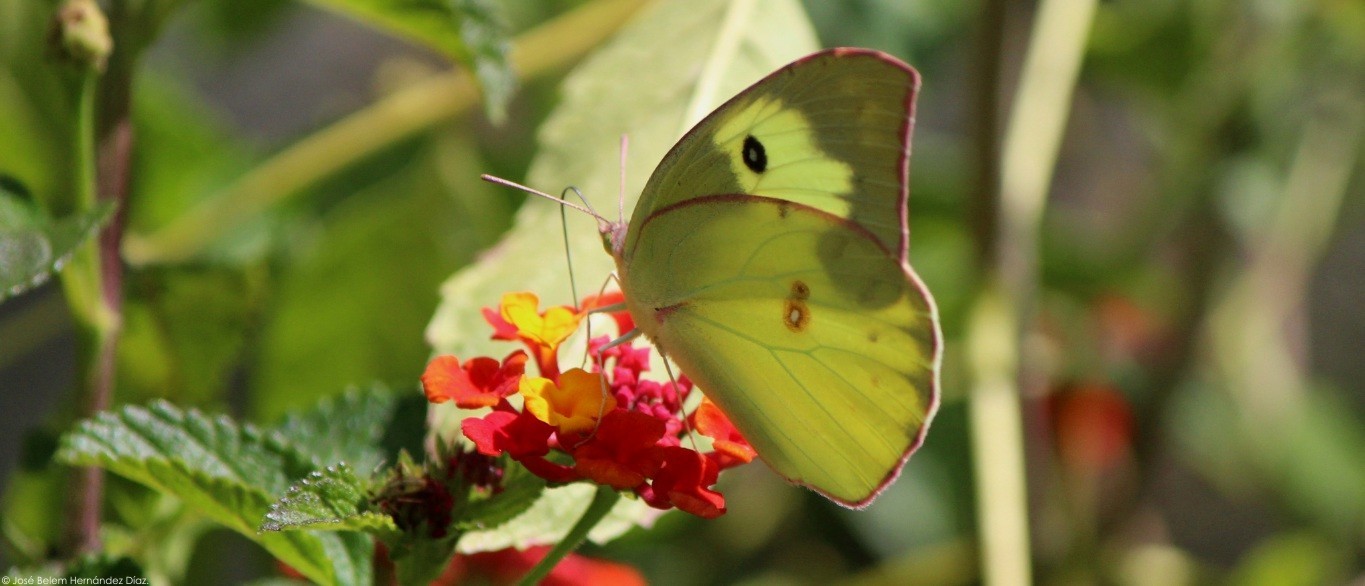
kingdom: Animalia
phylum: Arthropoda
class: Insecta
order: Lepidoptera
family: Pieridae
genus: Zerene
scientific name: Zerene cesonia
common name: Southern dogface
